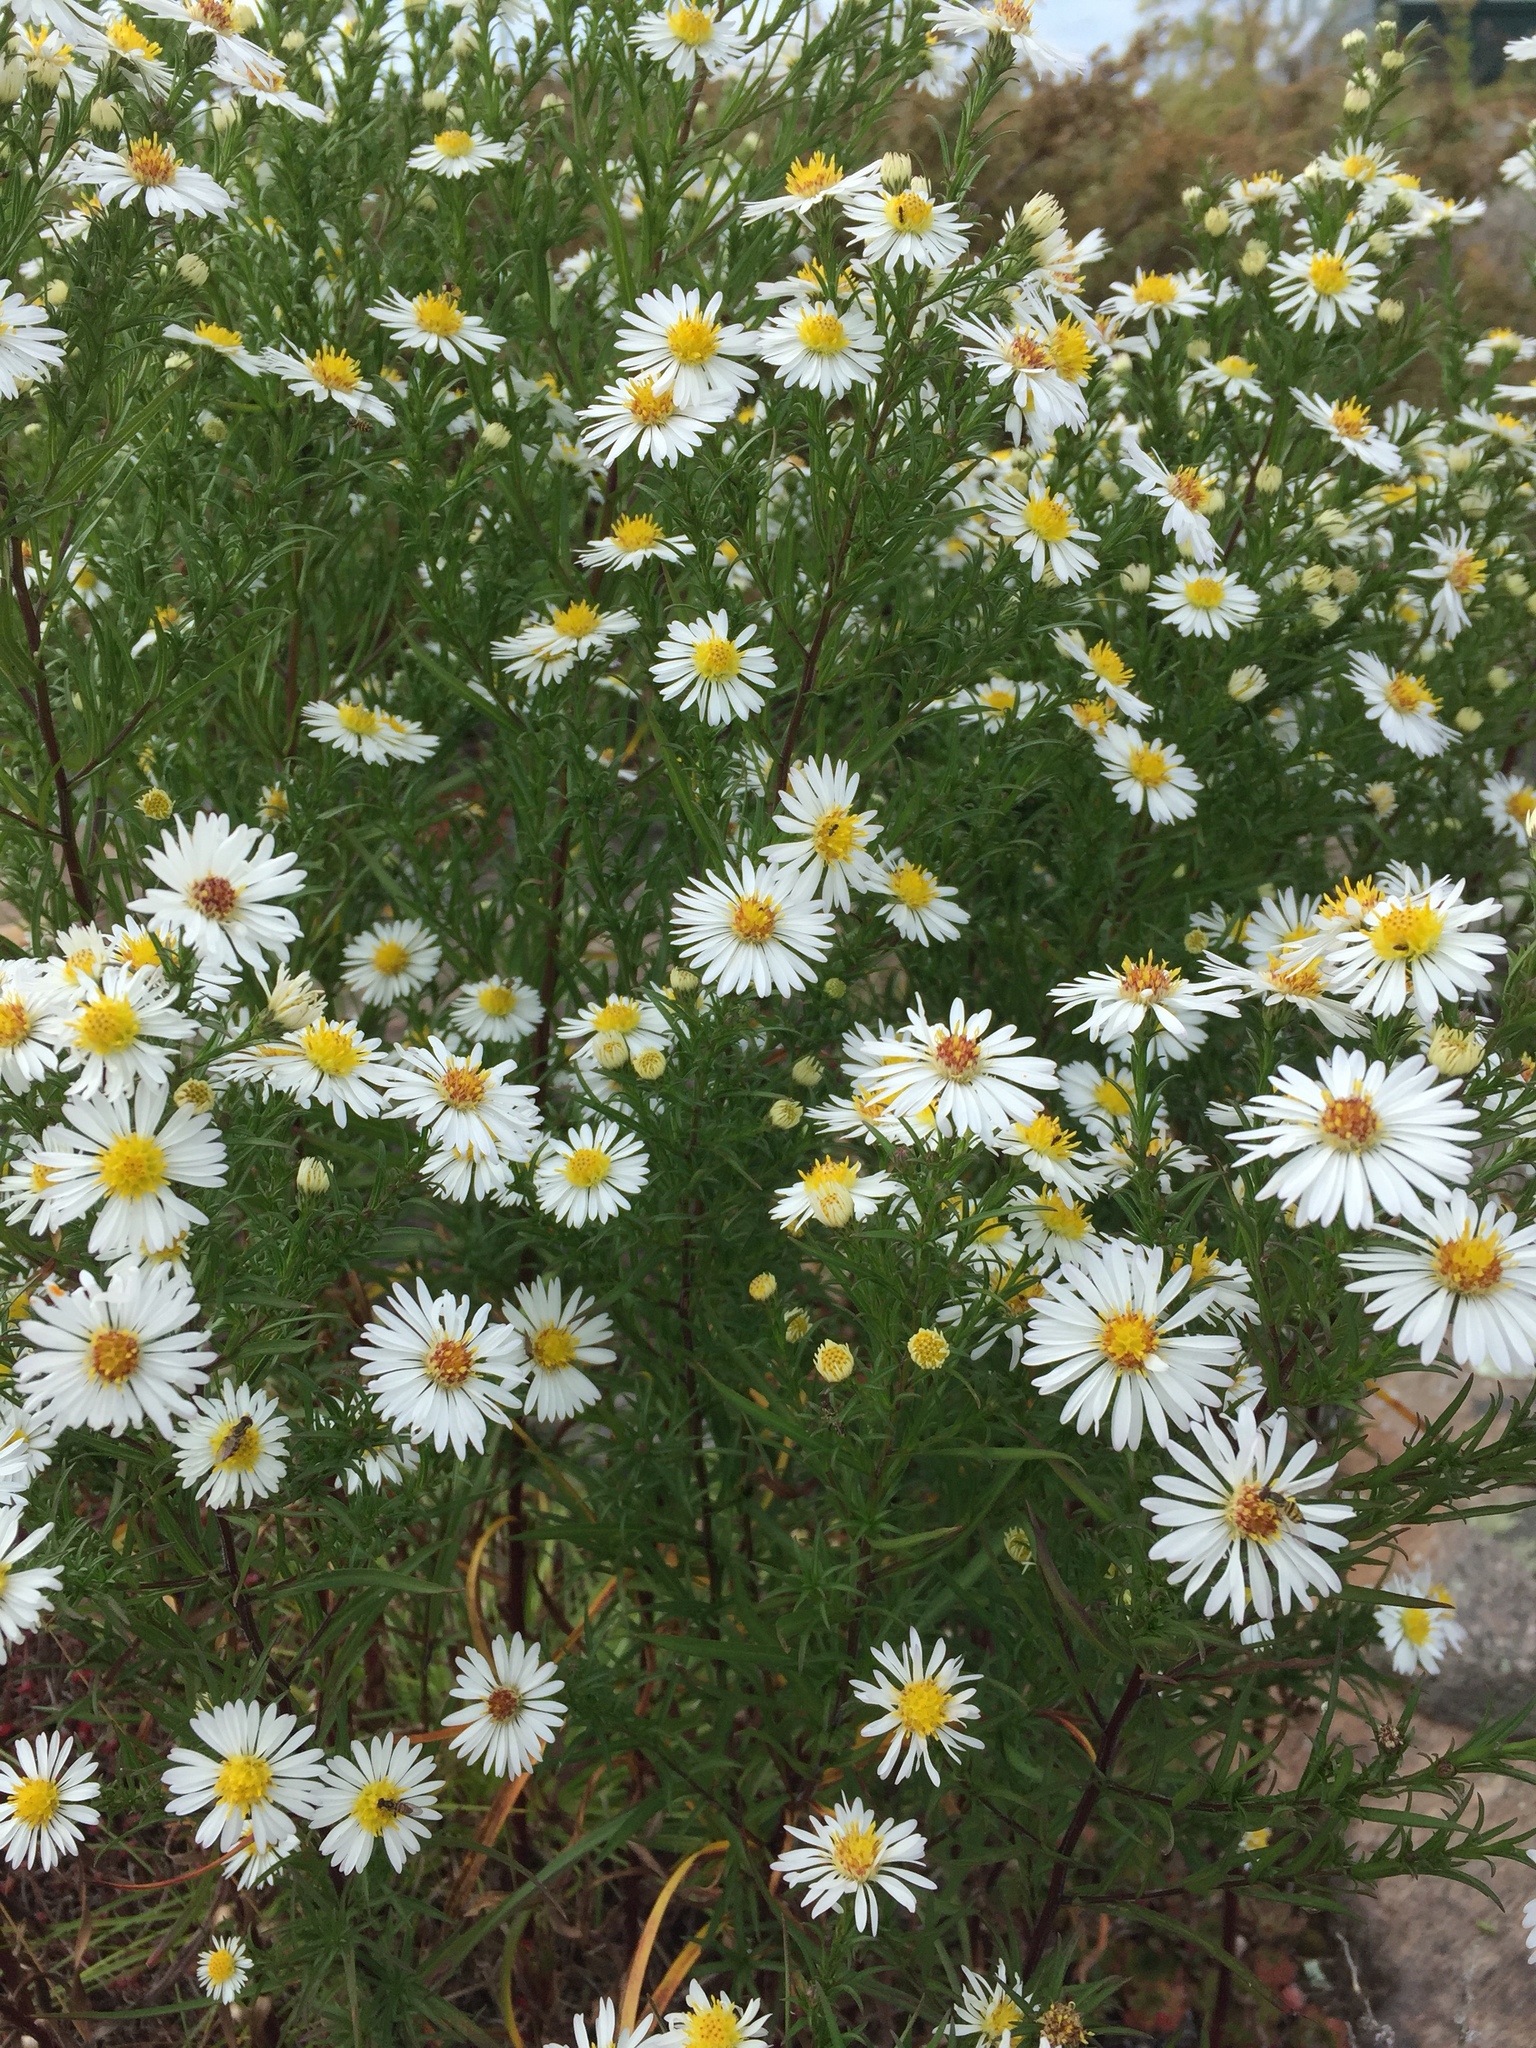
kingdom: Plantae
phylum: Tracheophyta
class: Magnoliopsida
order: Asterales
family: Asteraceae
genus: Symphyotrichum
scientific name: Symphyotrichum lanceolatum
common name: Panicled aster
